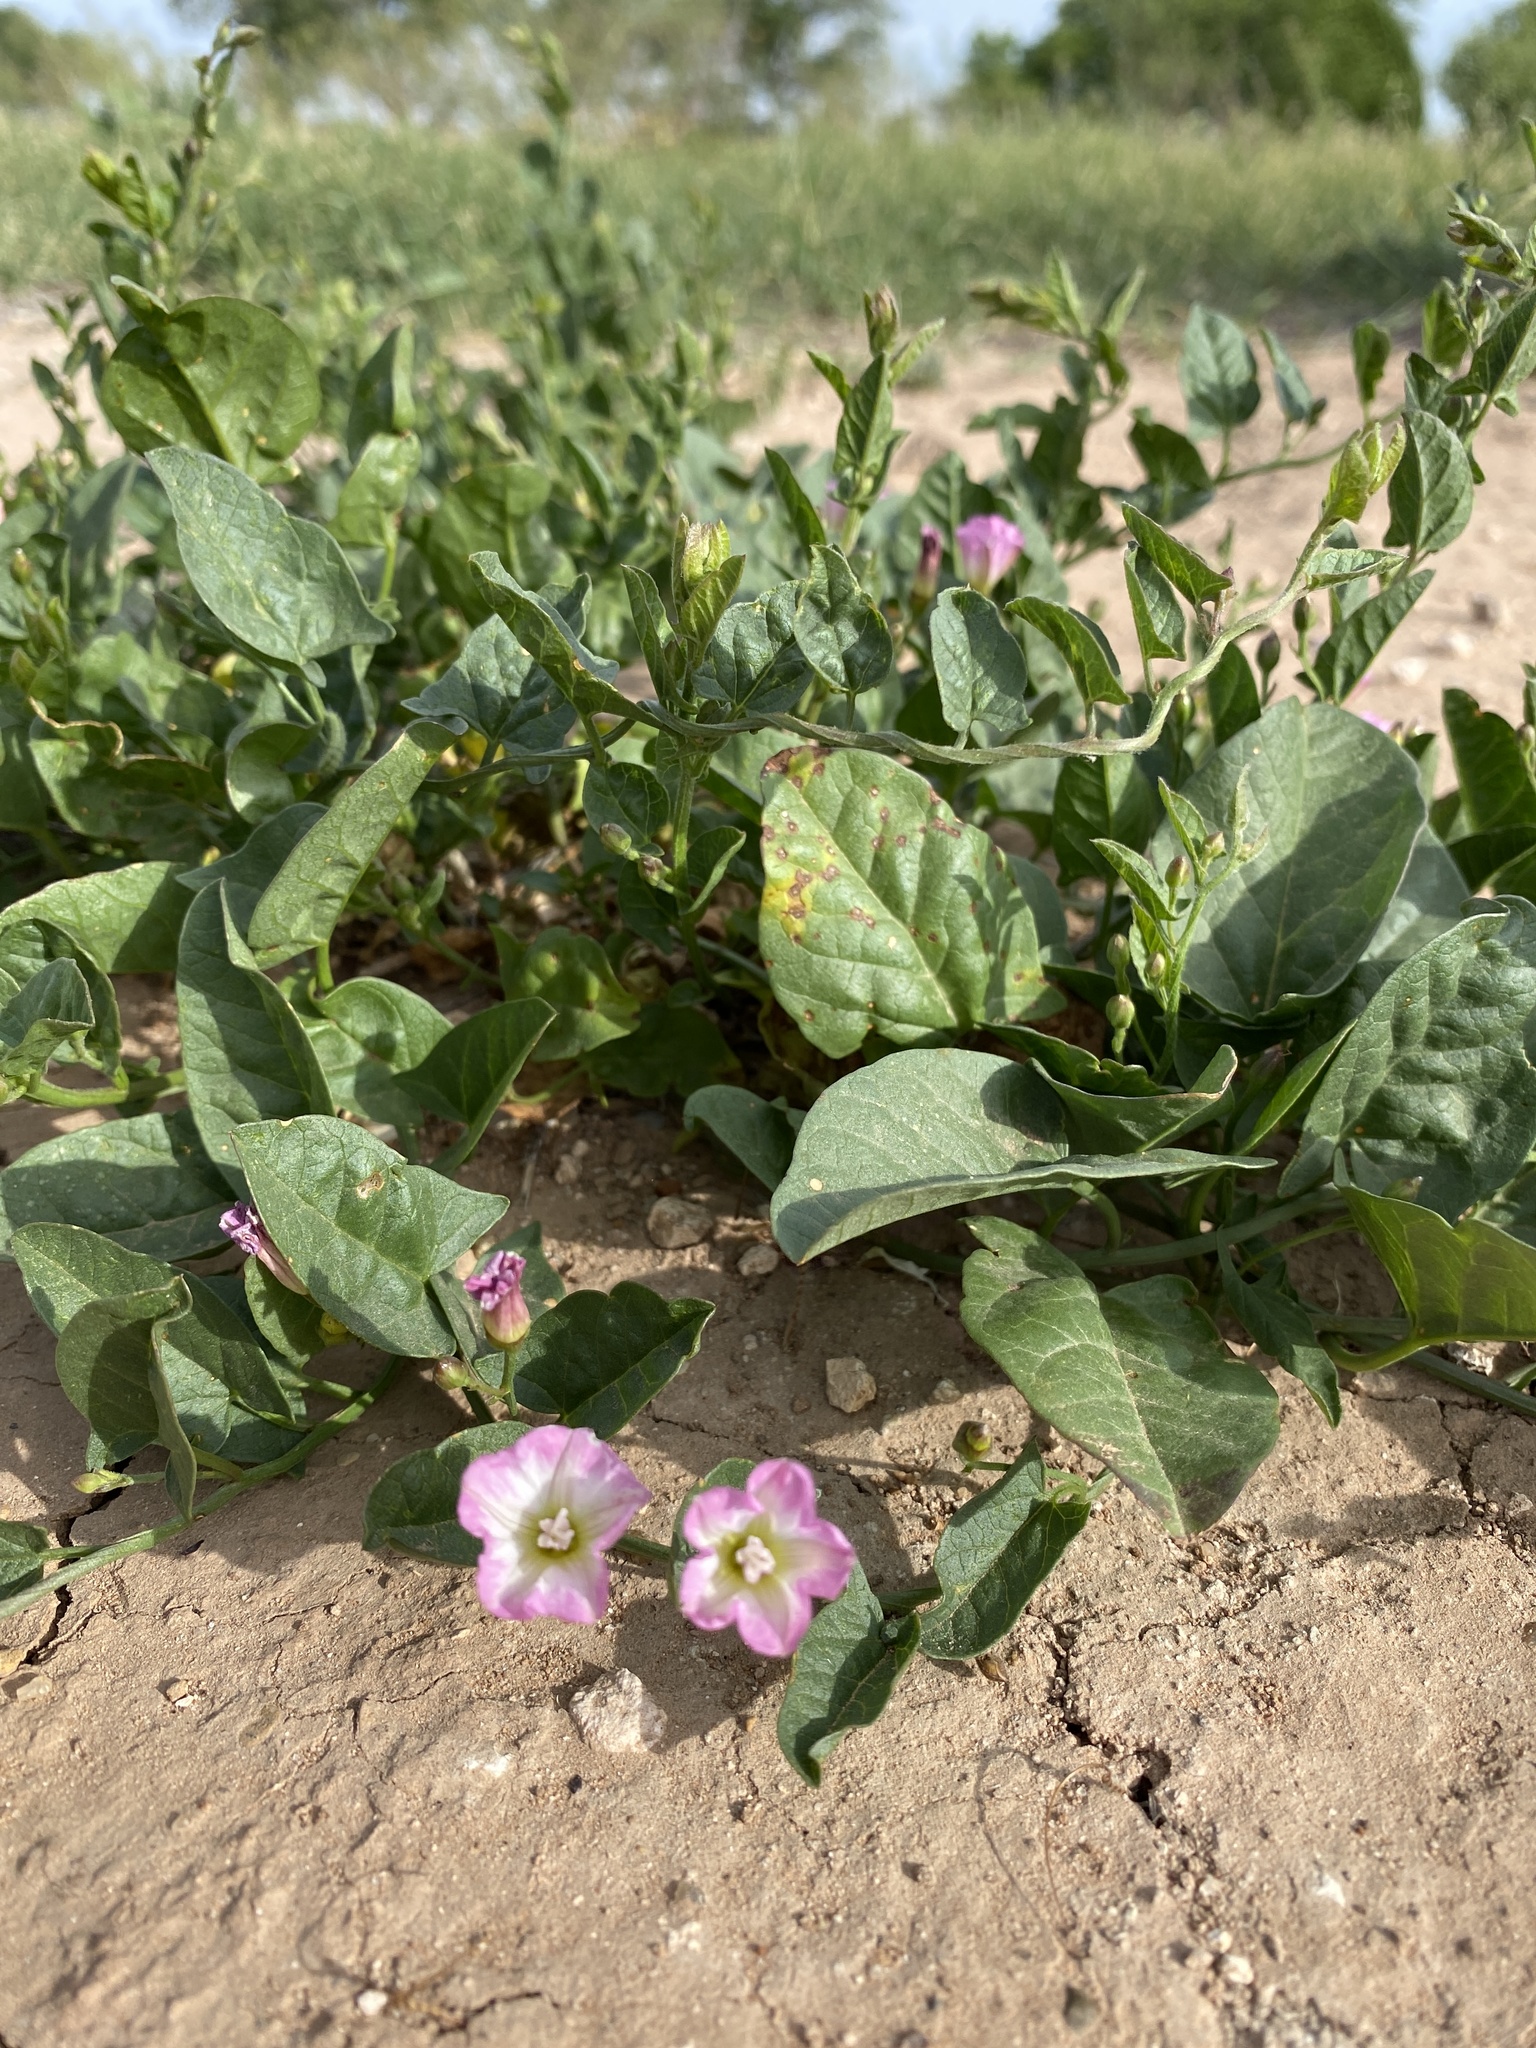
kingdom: Plantae
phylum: Tracheophyta
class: Magnoliopsida
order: Solanales
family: Convolvulaceae
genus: Convolvulus
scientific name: Convolvulus arvensis
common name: Field bindweed
